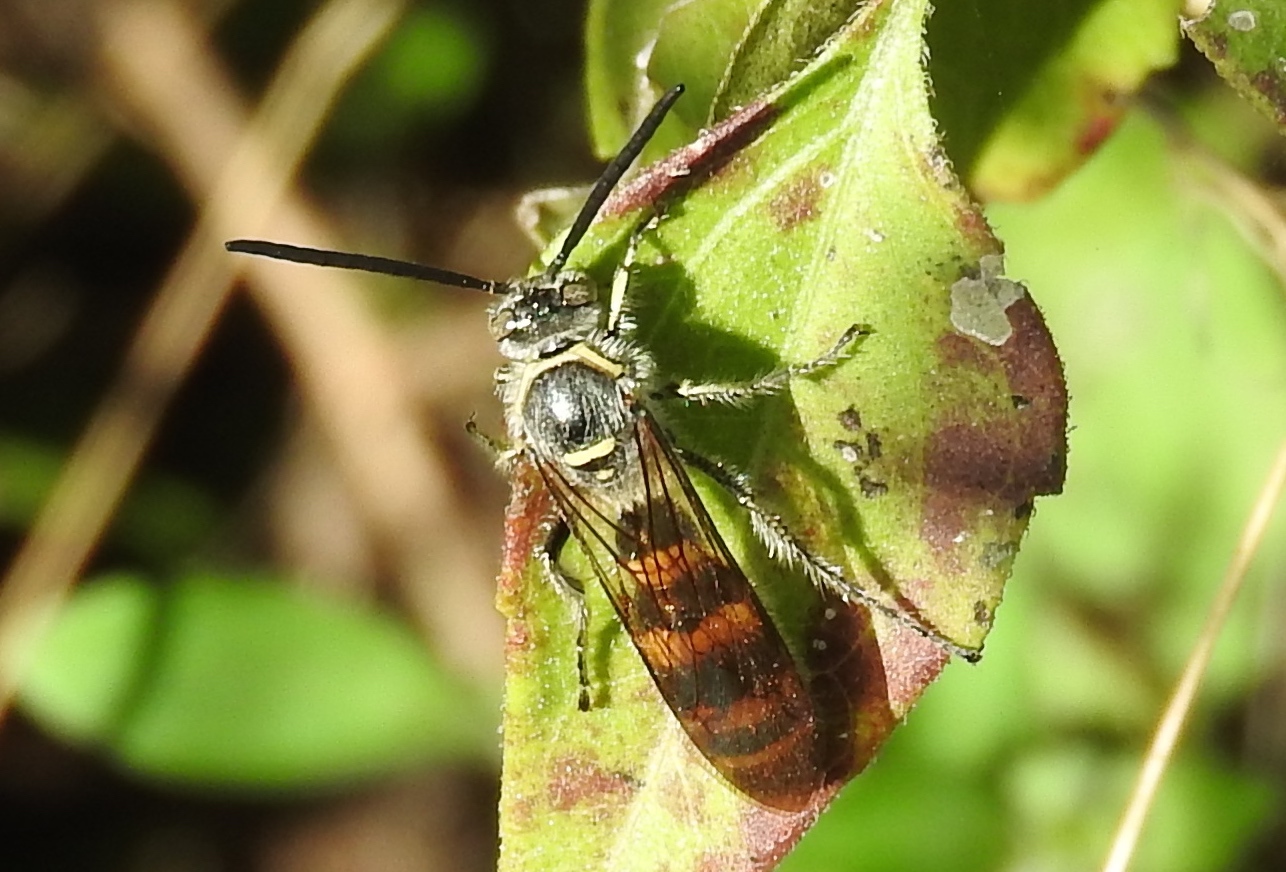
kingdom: Animalia
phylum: Arthropoda
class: Insecta
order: Hymenoptera
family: Scoliidae
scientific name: Scoliidae
